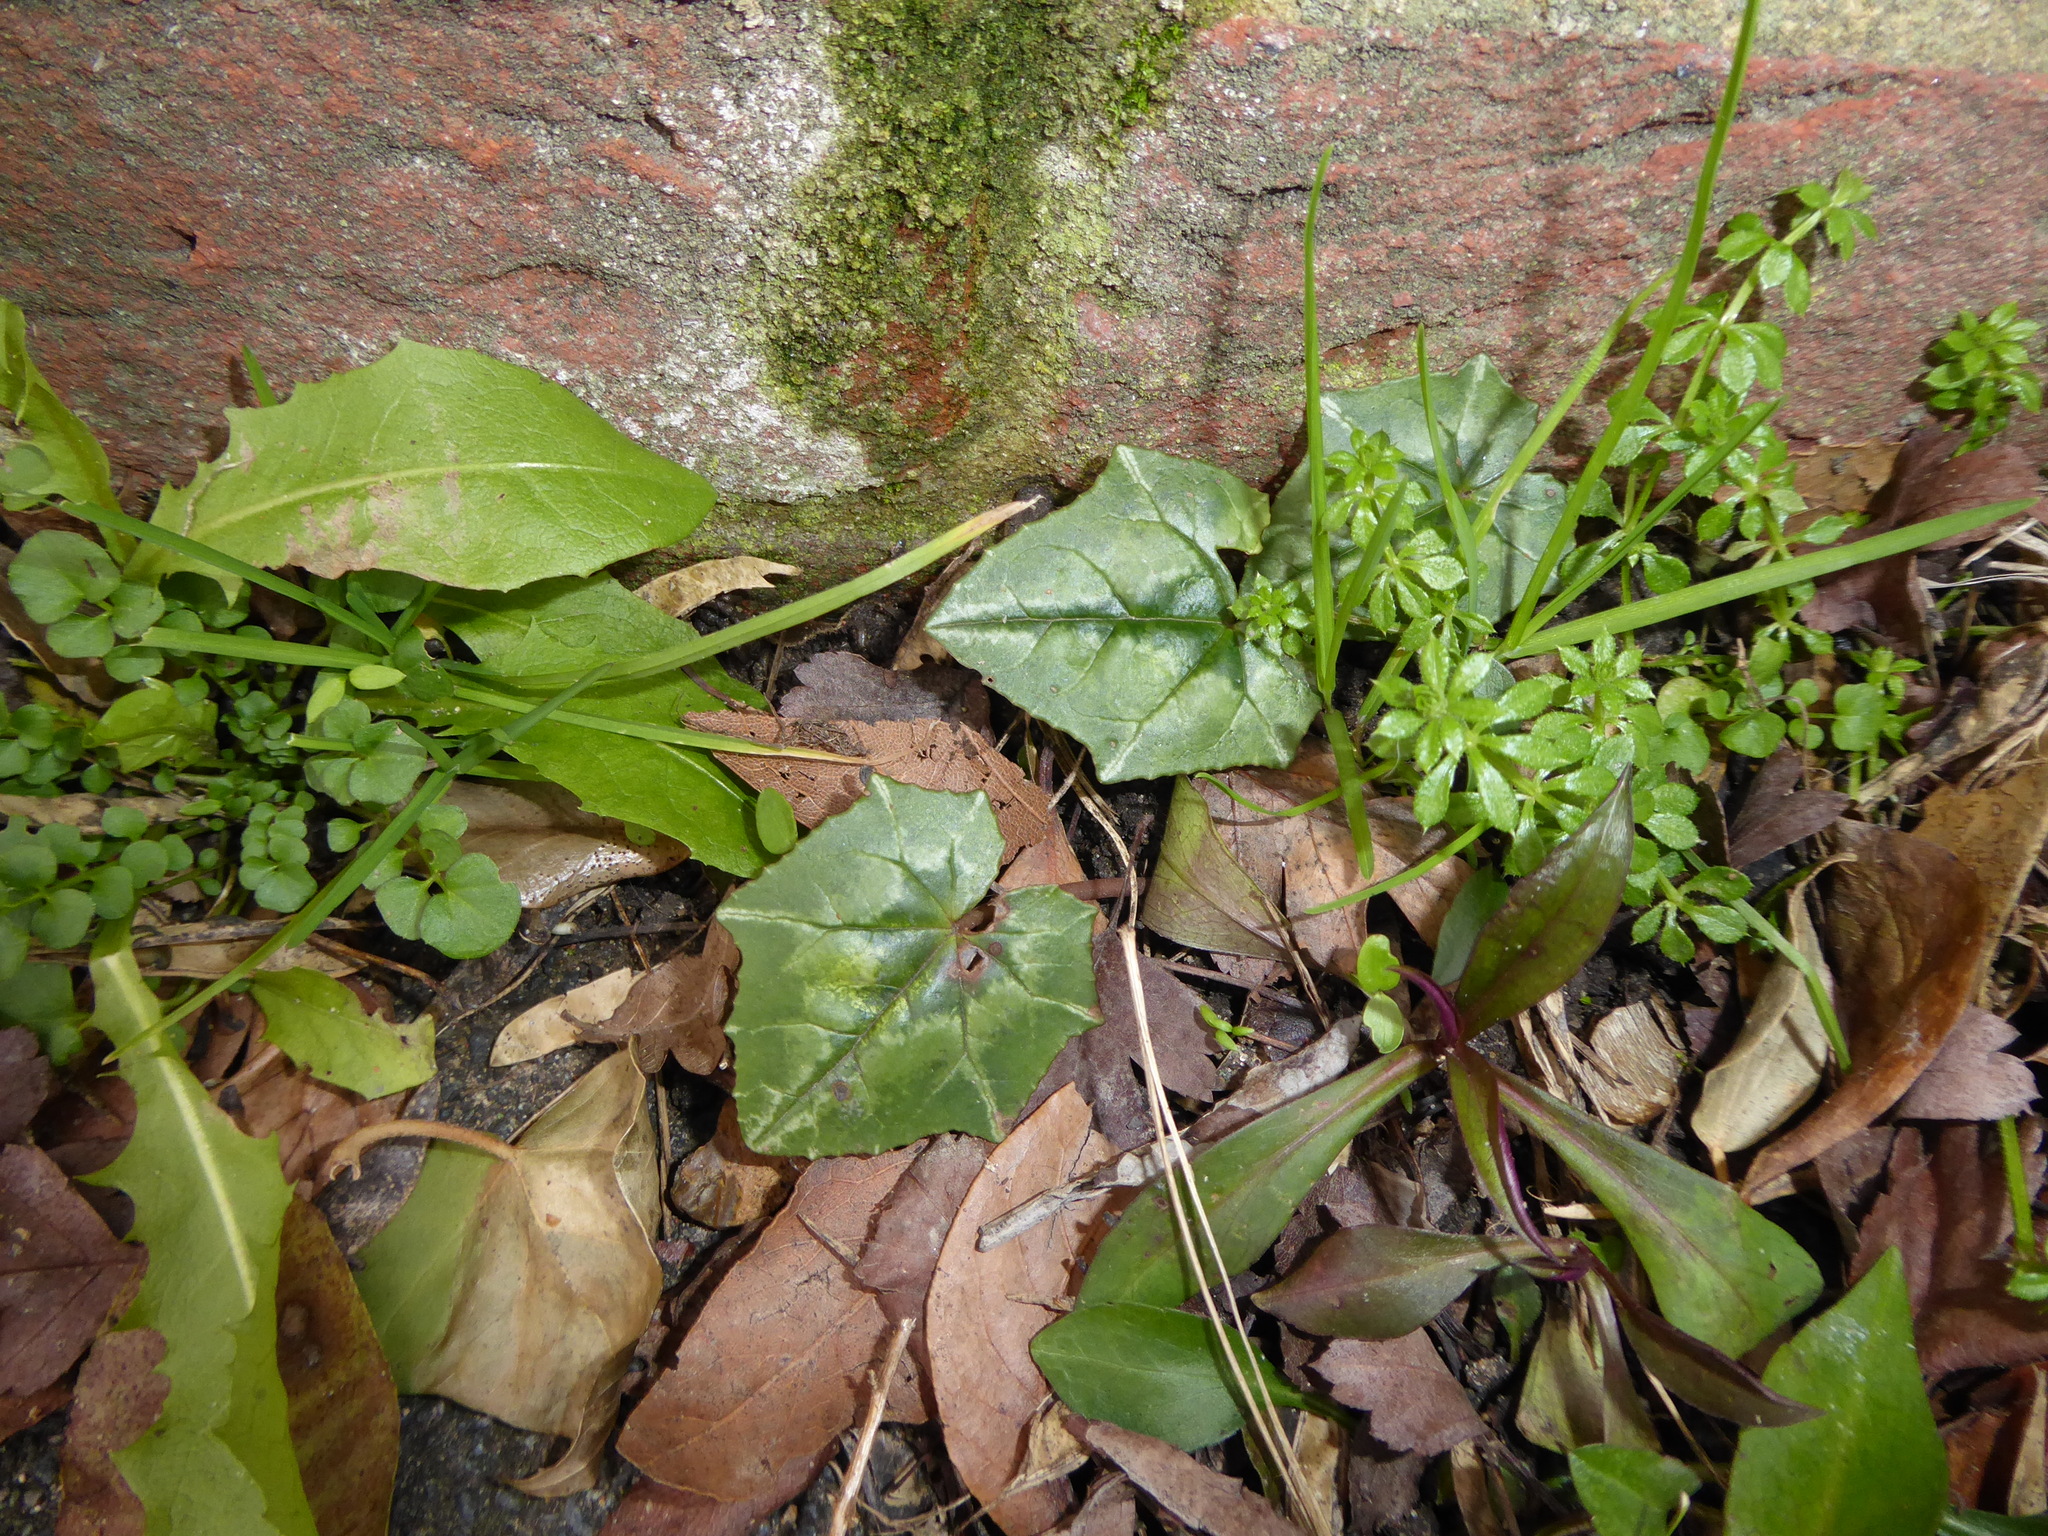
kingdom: Plantae
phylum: Tracheophyta
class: Magnoliopsida
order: Ericales
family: Primulaceae
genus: Cyclamen
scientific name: Cyclamen hederifolium
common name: Sowbread
